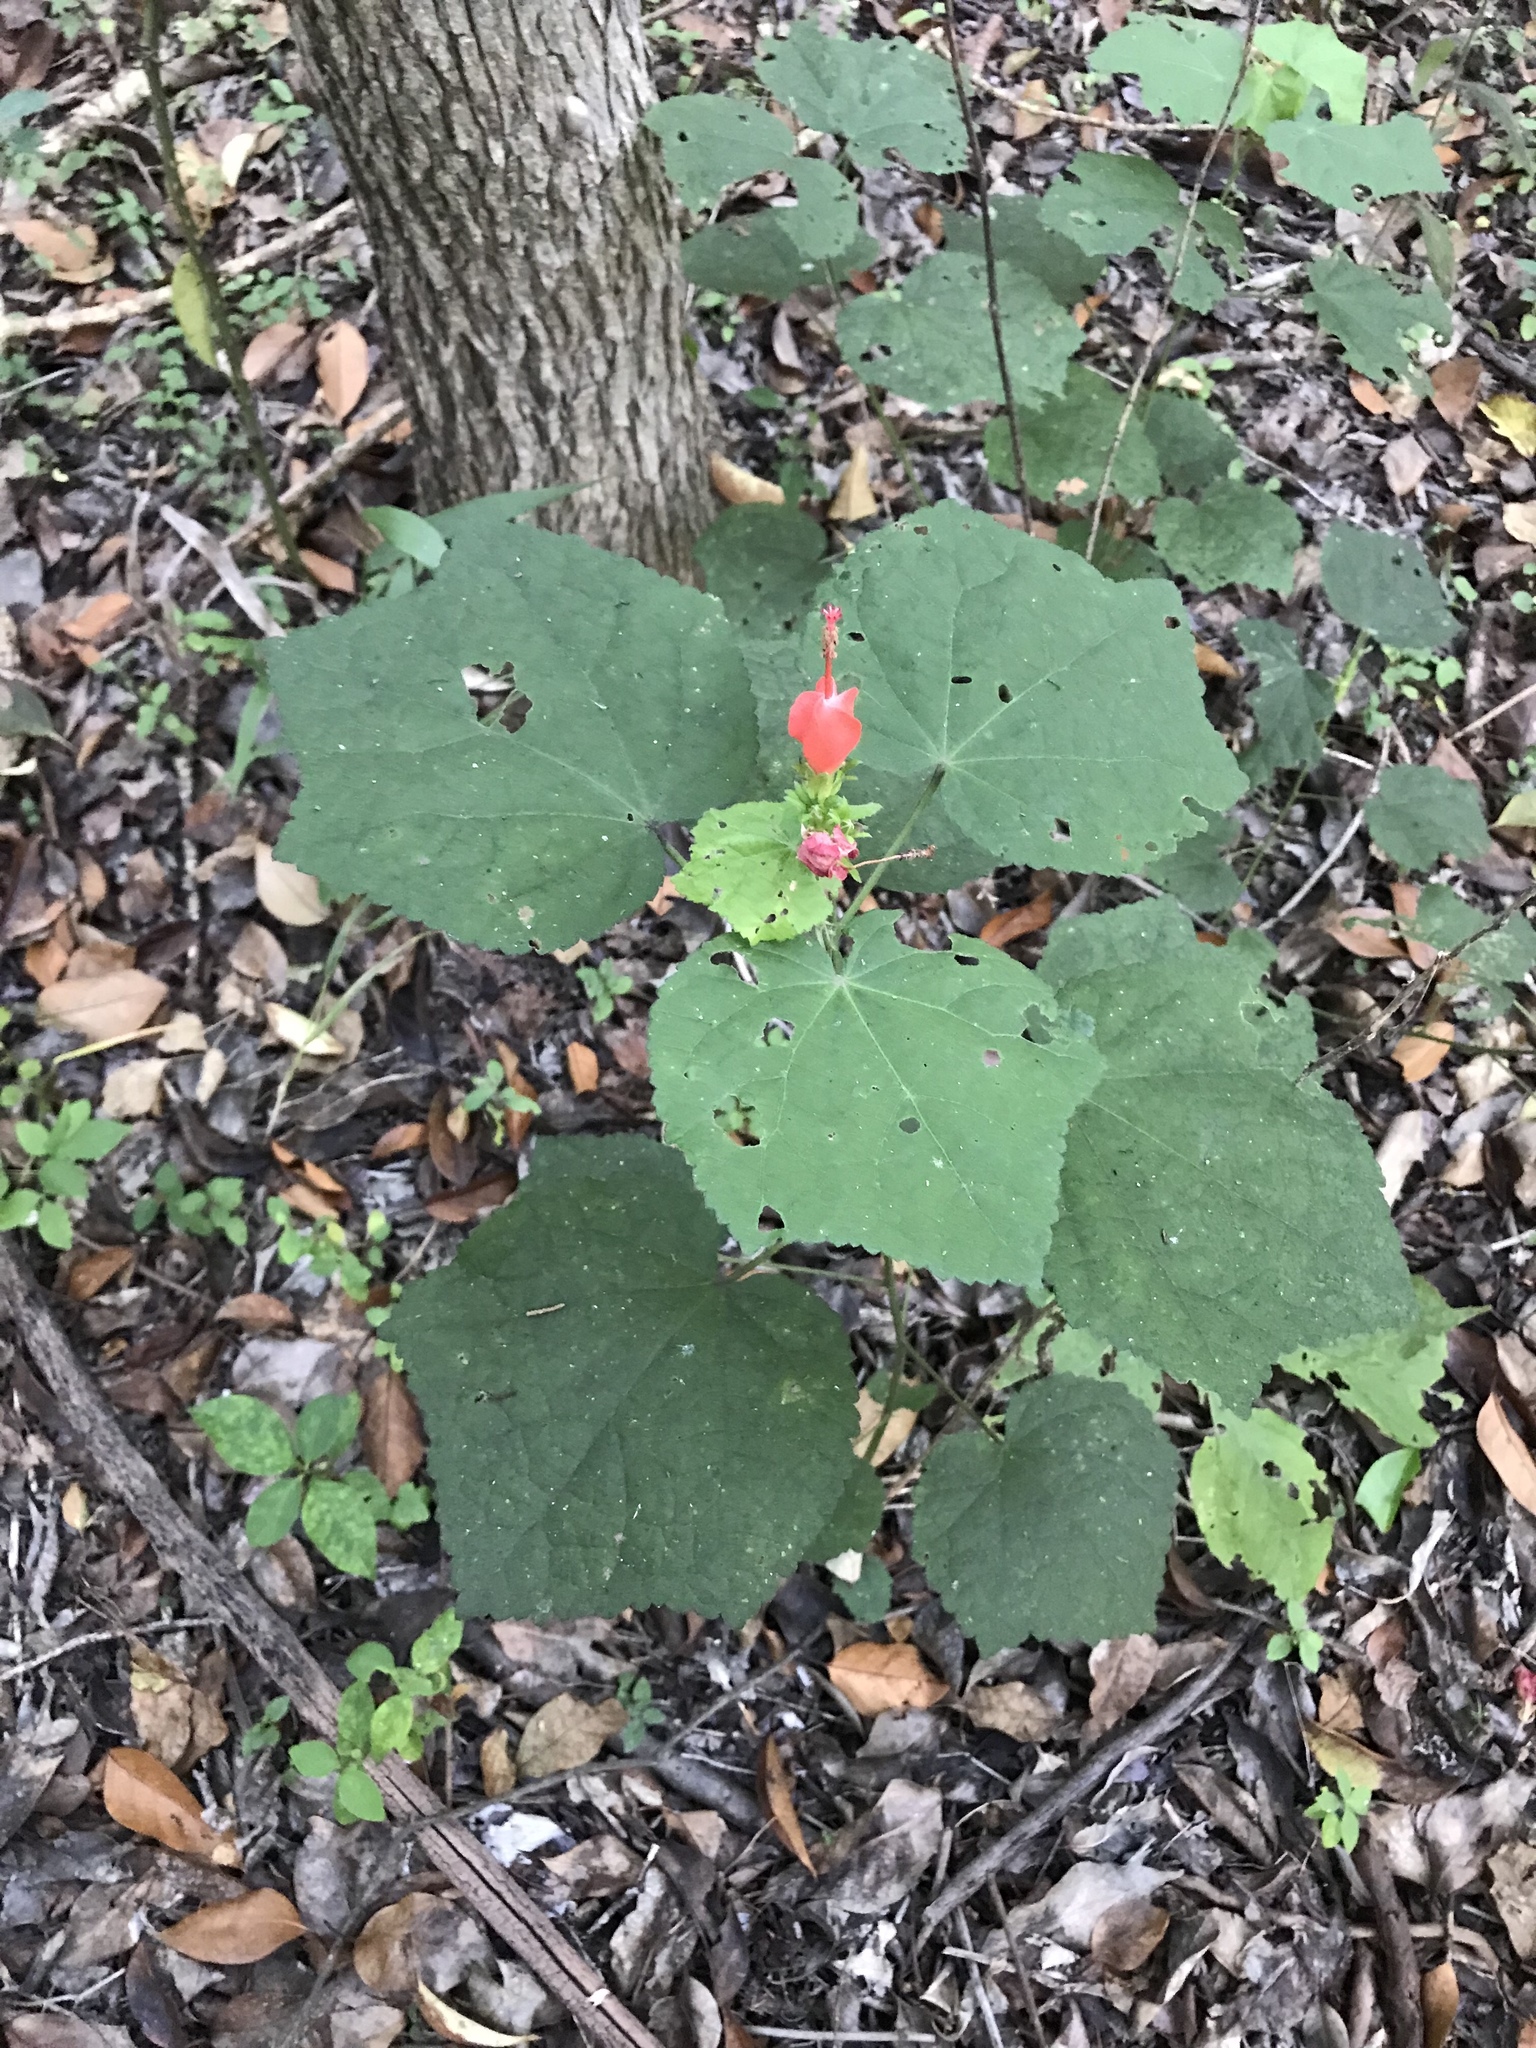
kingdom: Plantae
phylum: Tracheophyta
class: Magnoliopsida
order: Malvales
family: Malvaceae
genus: Malvaviscus
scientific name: Malvaviscus arboreus
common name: Wax mallow
